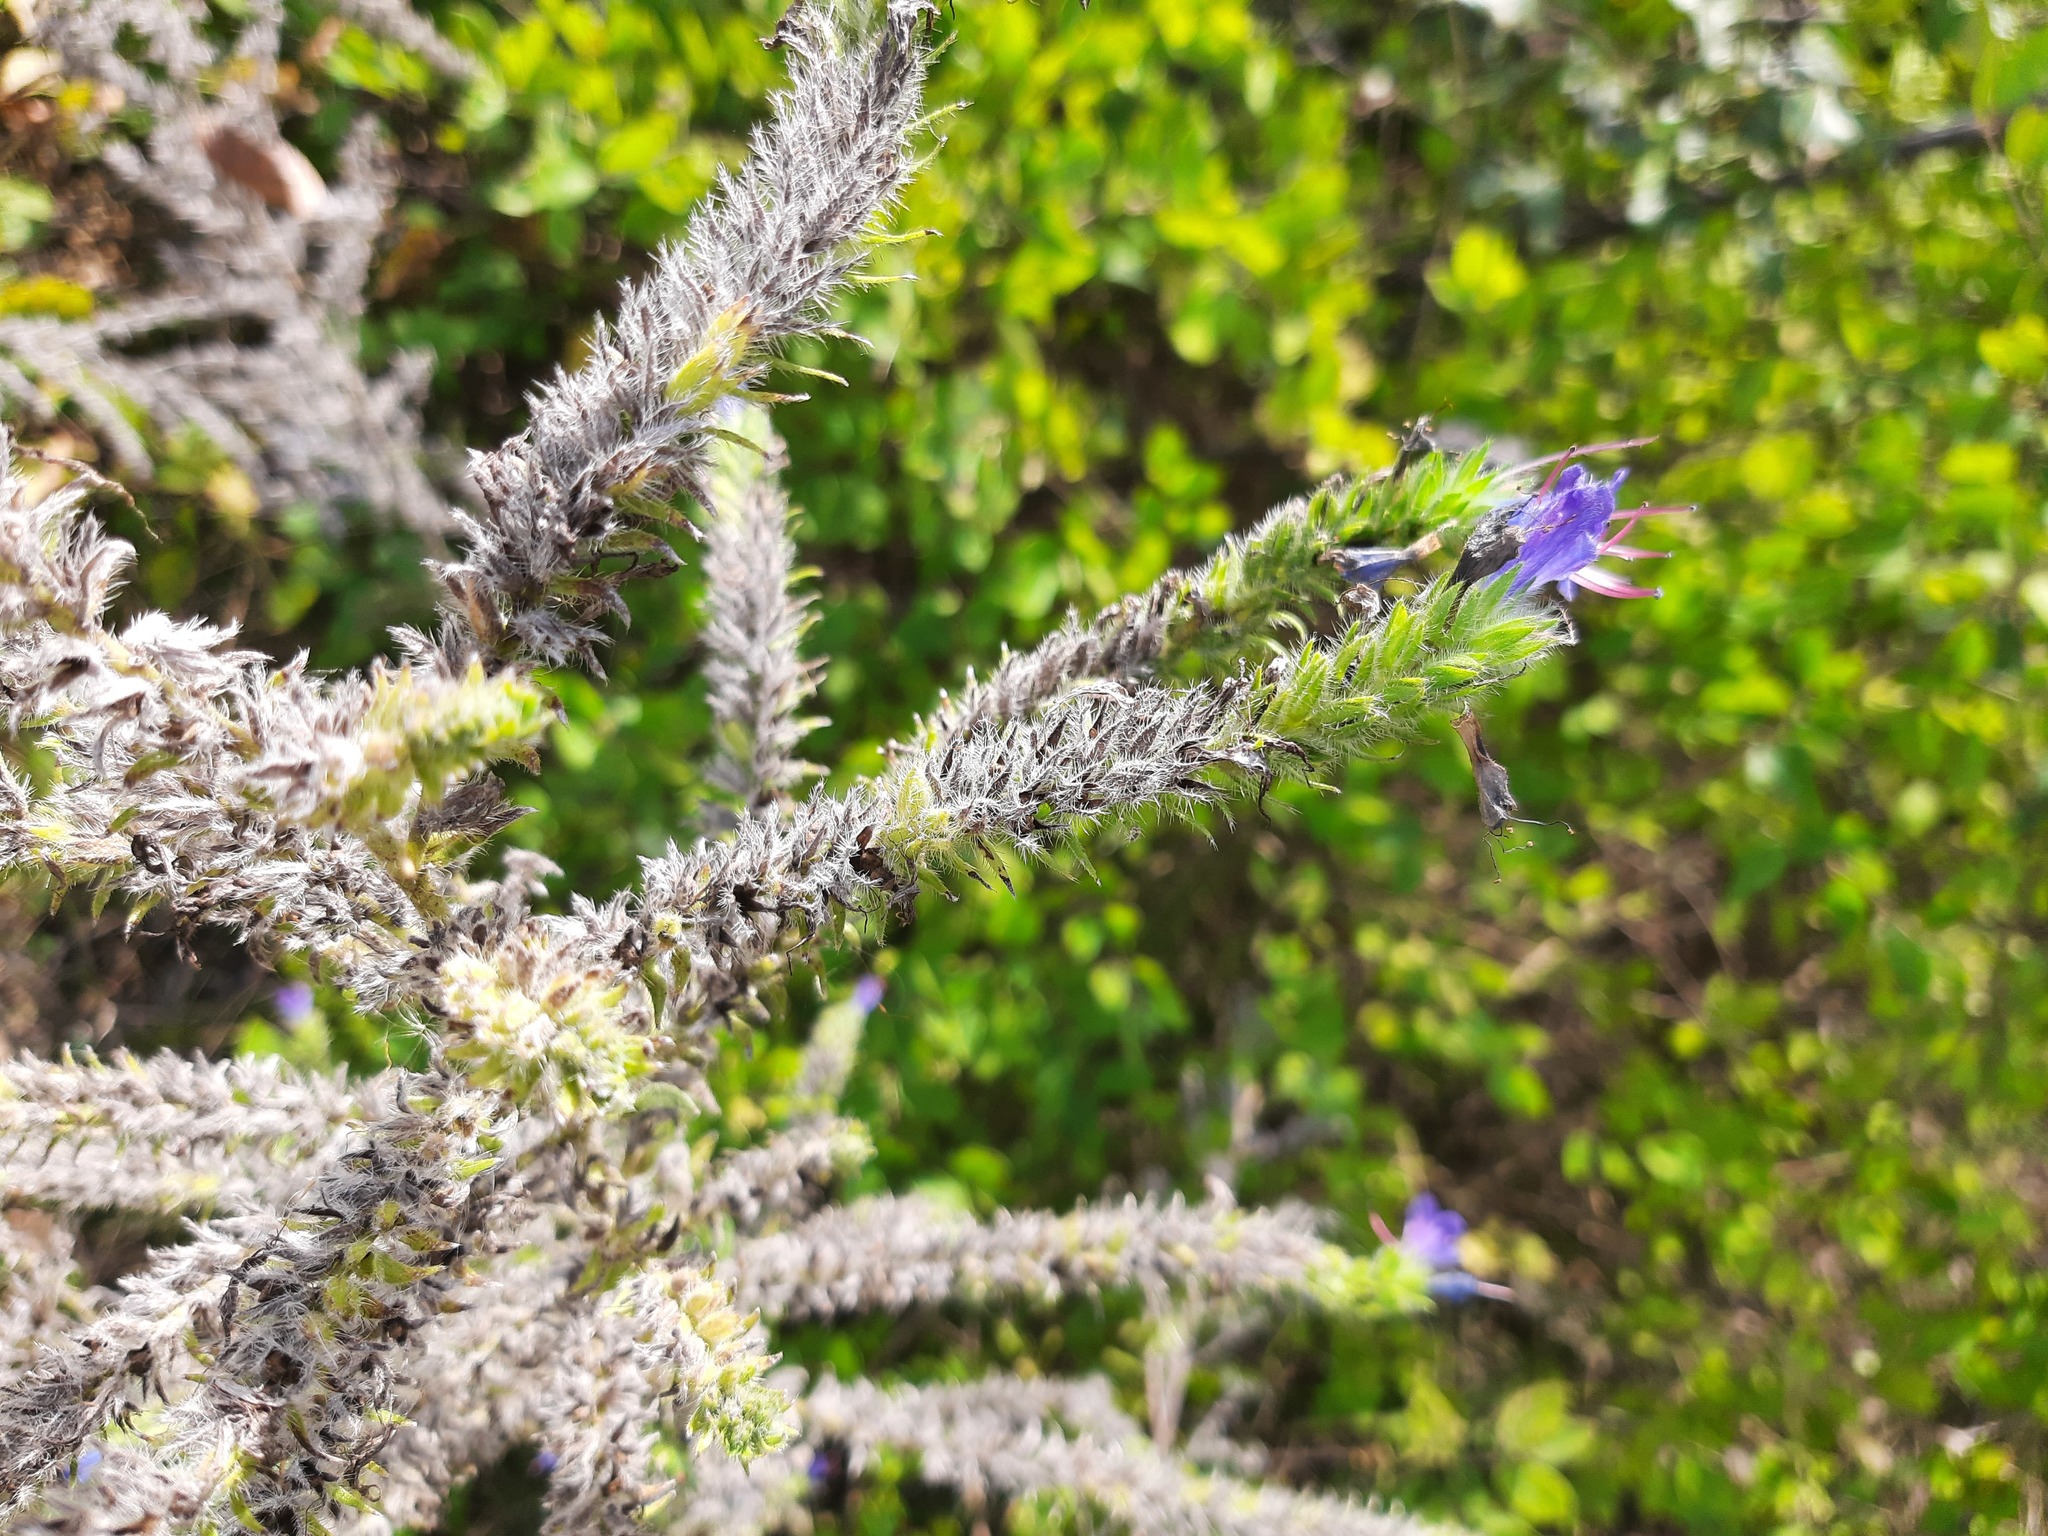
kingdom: Plantae
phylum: Tracheophyta
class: Magnoliopsida
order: Boraginales
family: Boraginaceae
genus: Echium
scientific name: Echium vulgare
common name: Common viper's bugloss
